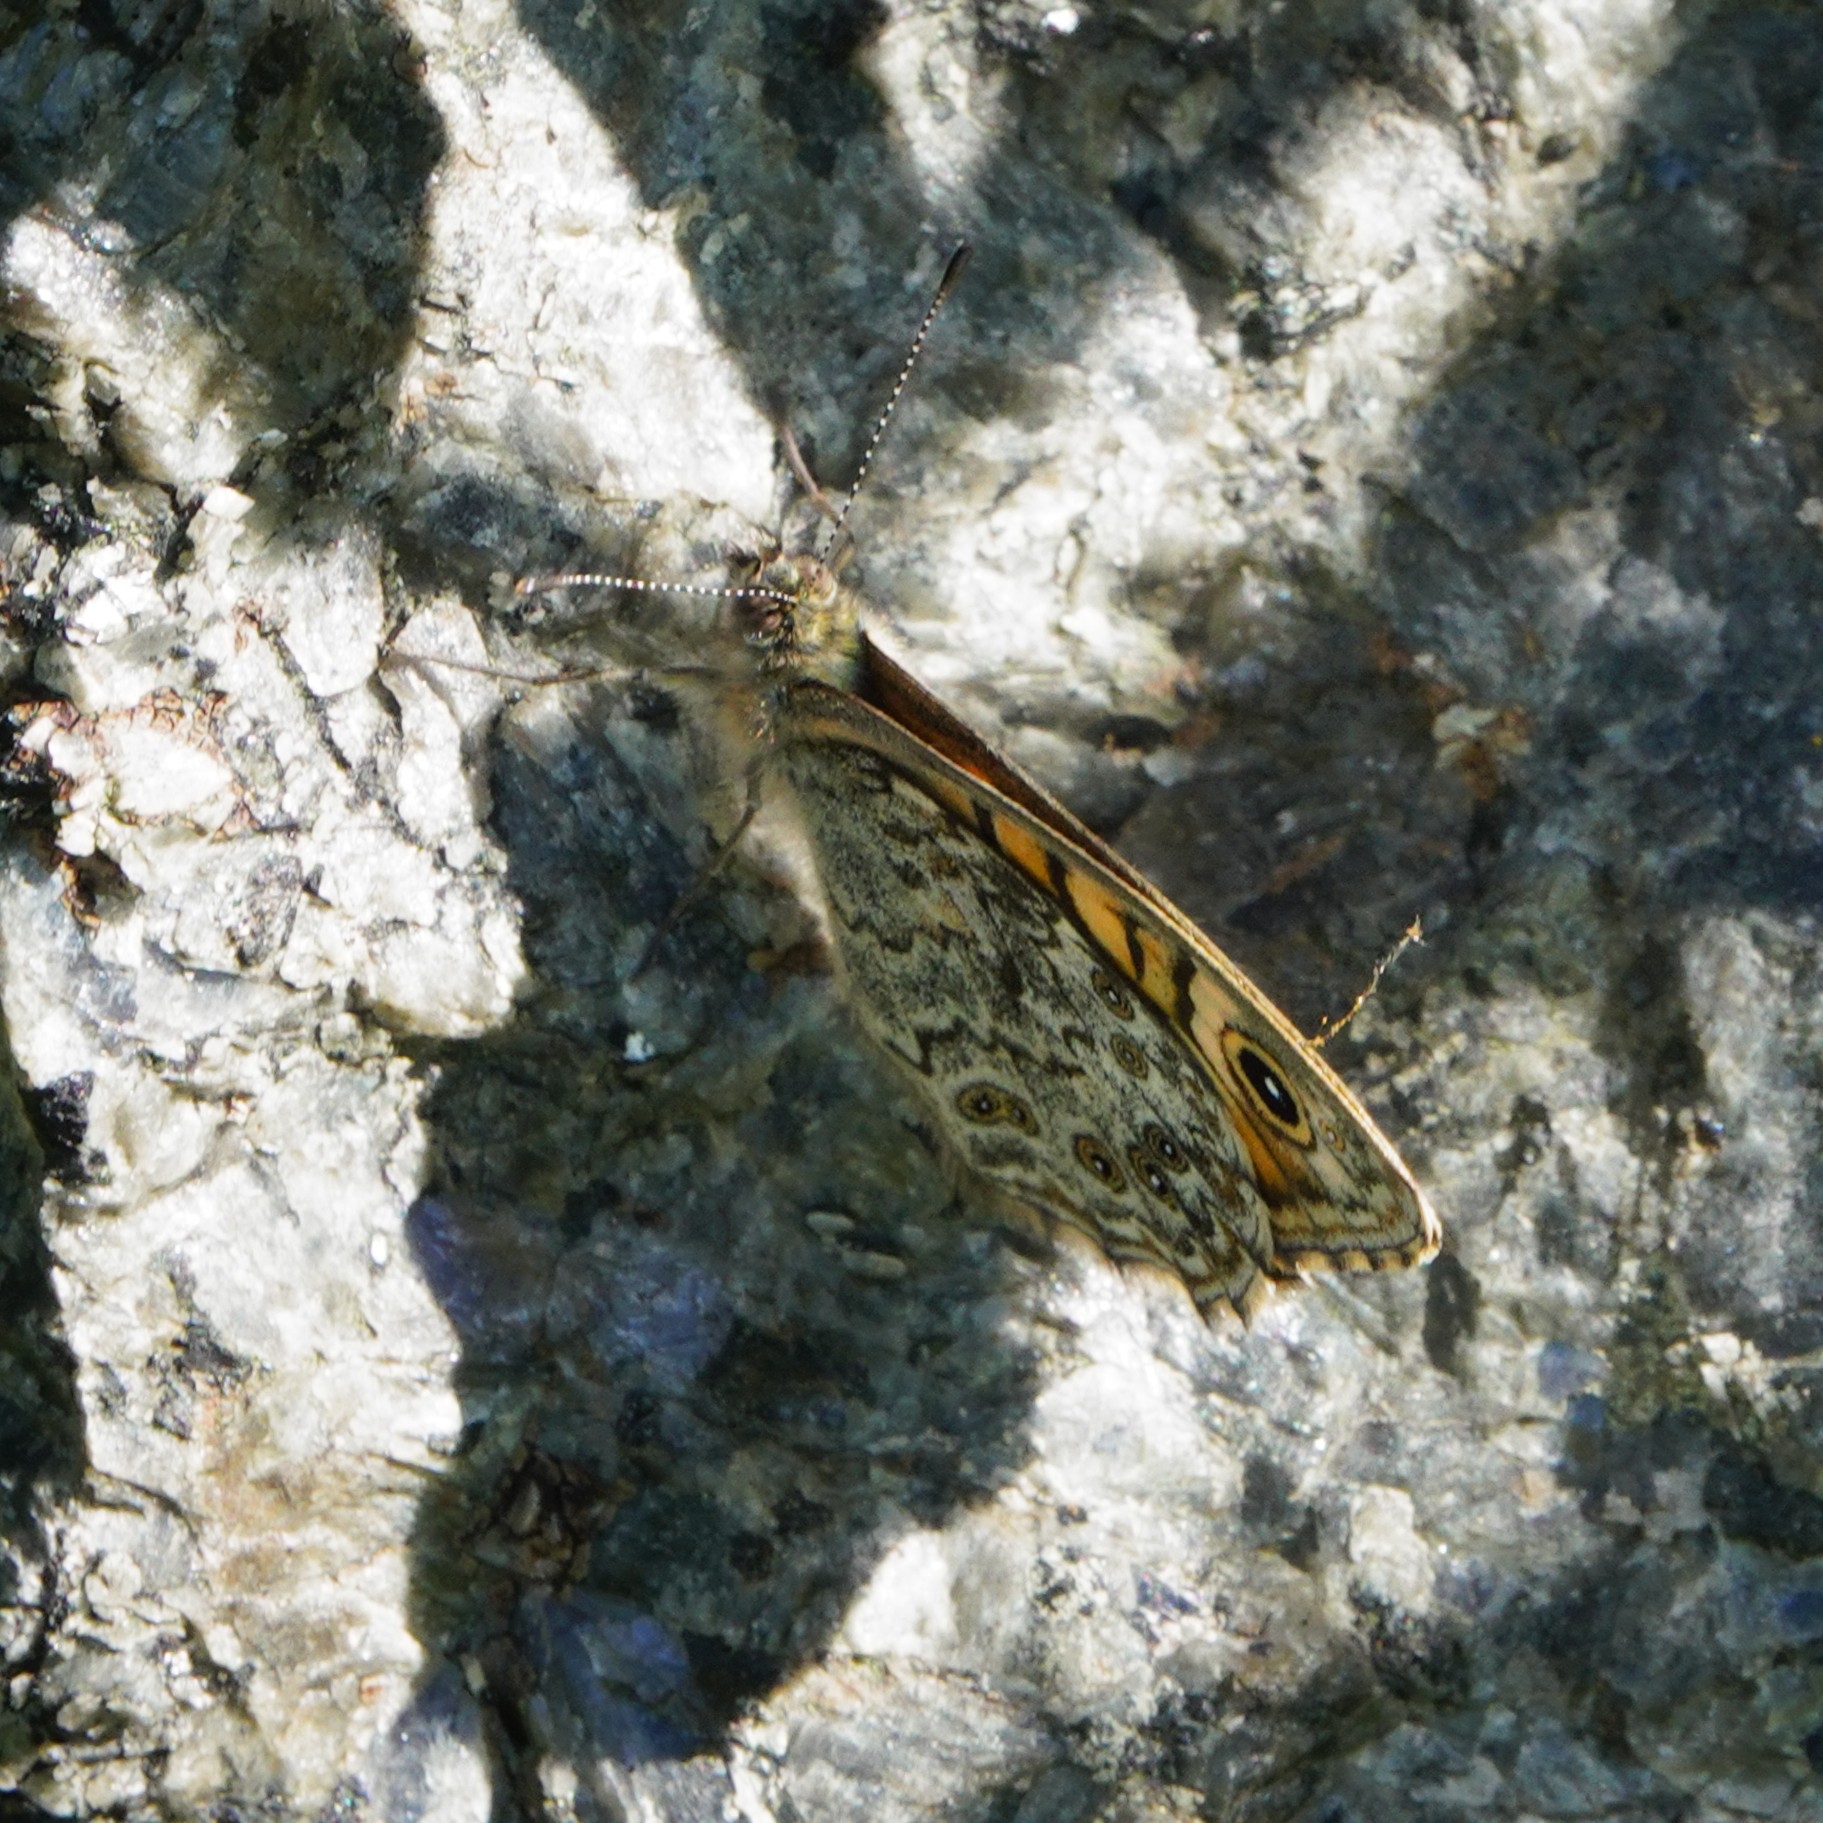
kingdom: Animalia
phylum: Arthropoda
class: Insecta
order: Lepidoptera
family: Nymphalidae
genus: Pararge
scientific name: Pararge Lasiommata megera
